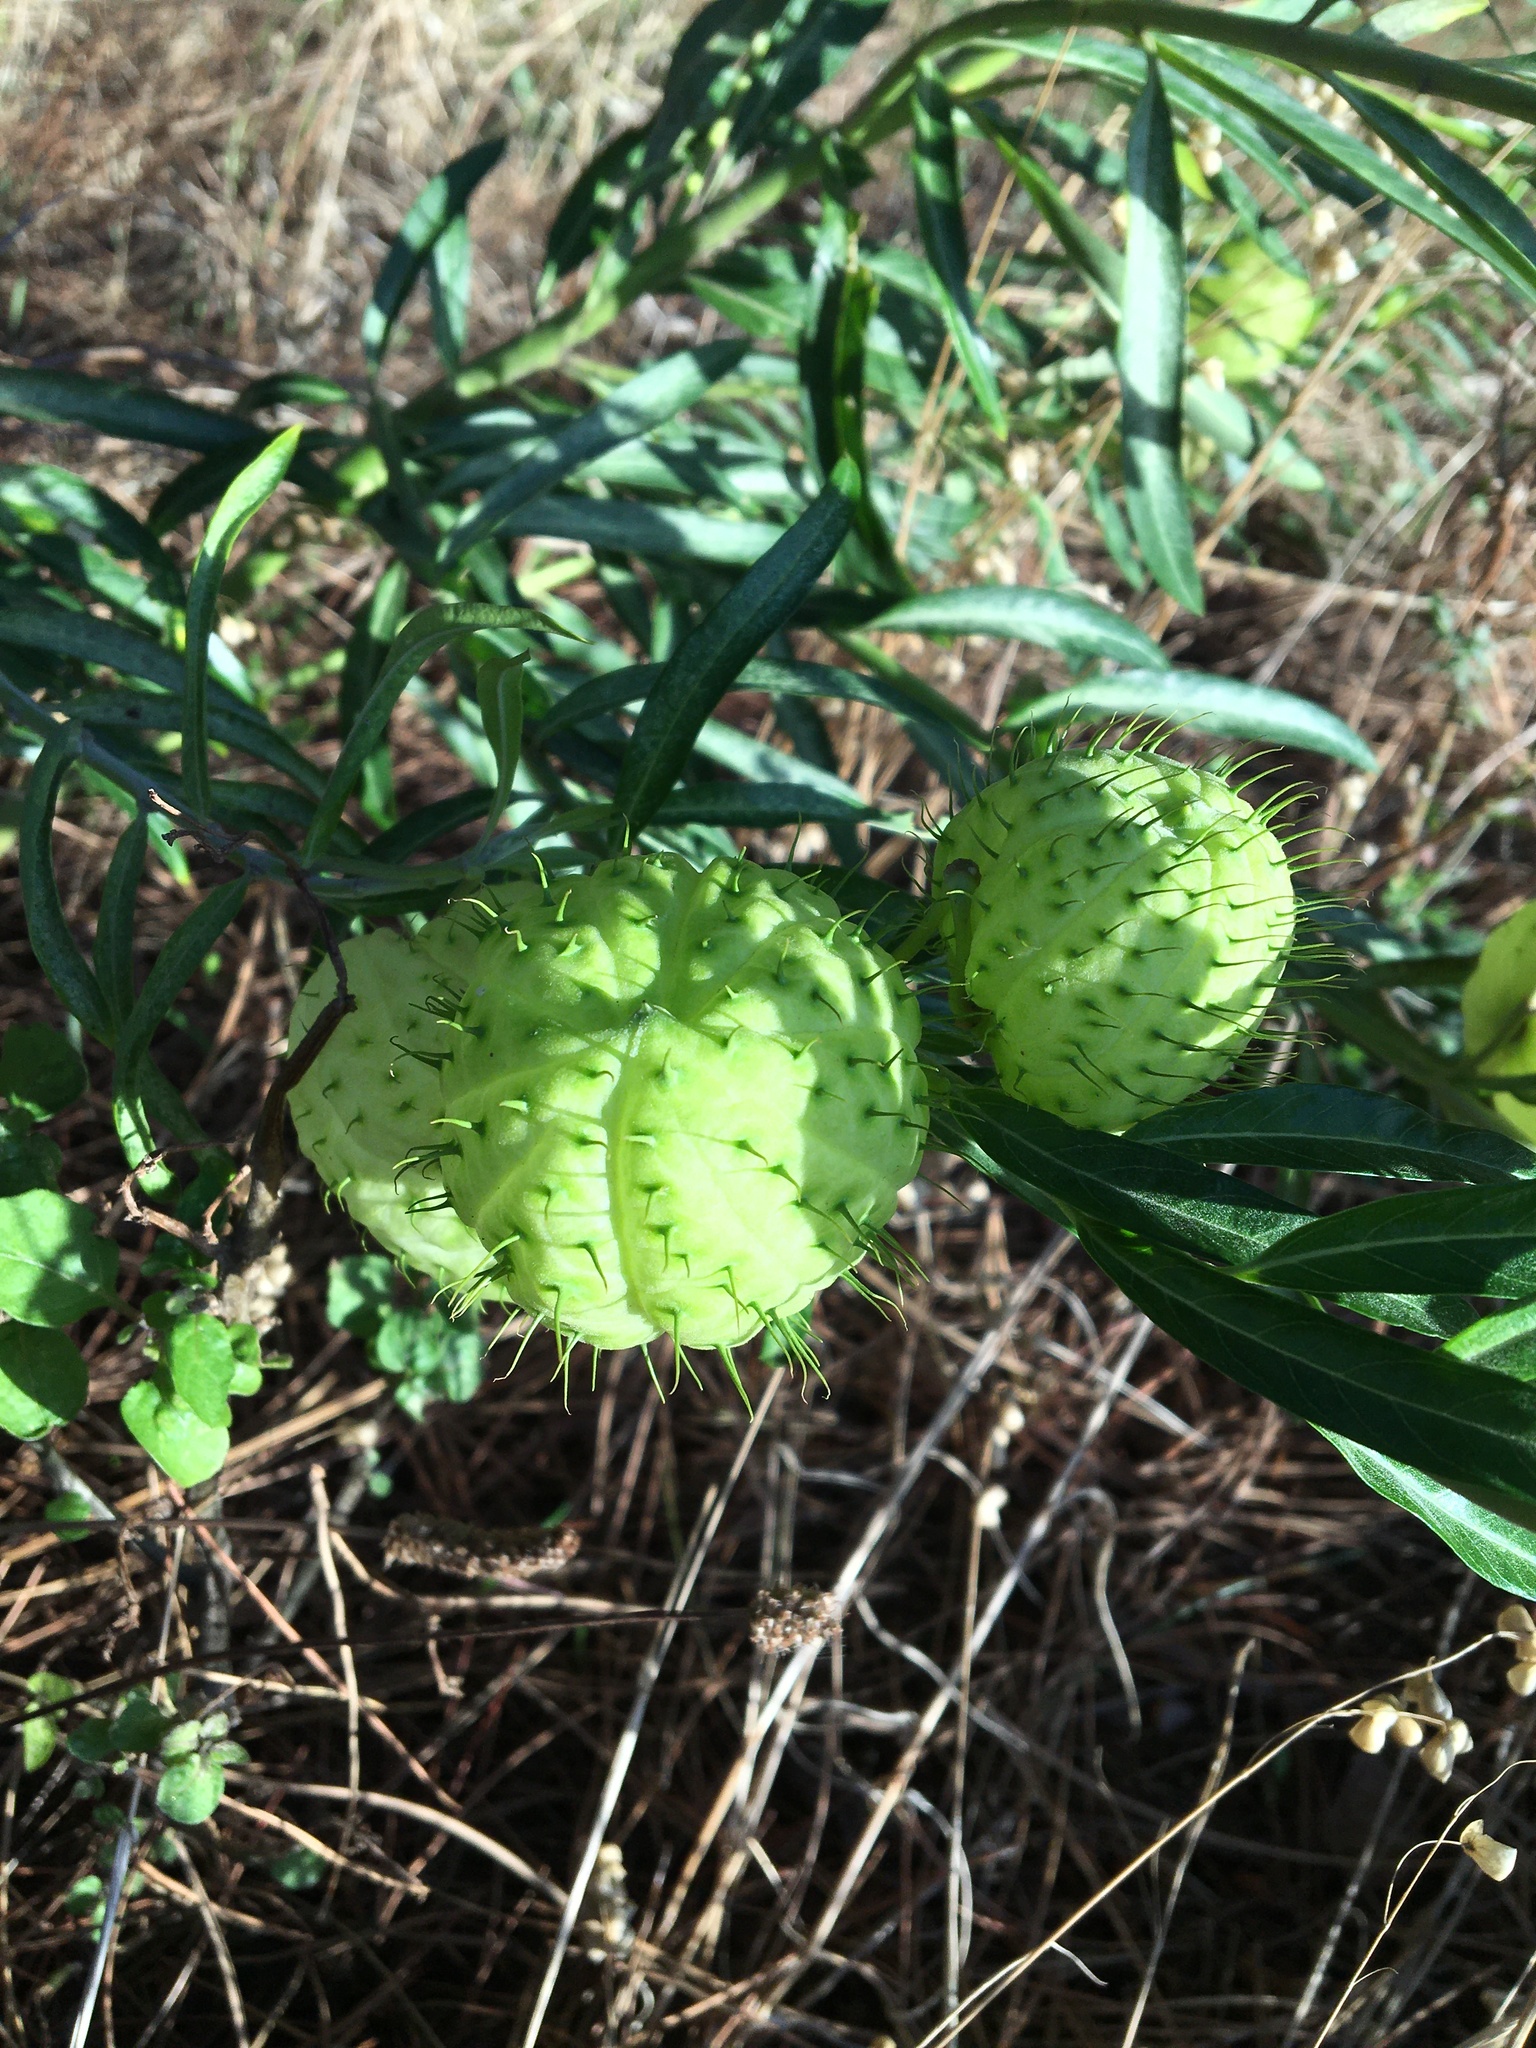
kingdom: Plantae
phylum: Tracheophyta
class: Magnoliopsida
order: Gentianales
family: Apocynaceae
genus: Gomphocarpus
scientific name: Gomphocarpus physocarpus
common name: Balloon cotton bush
